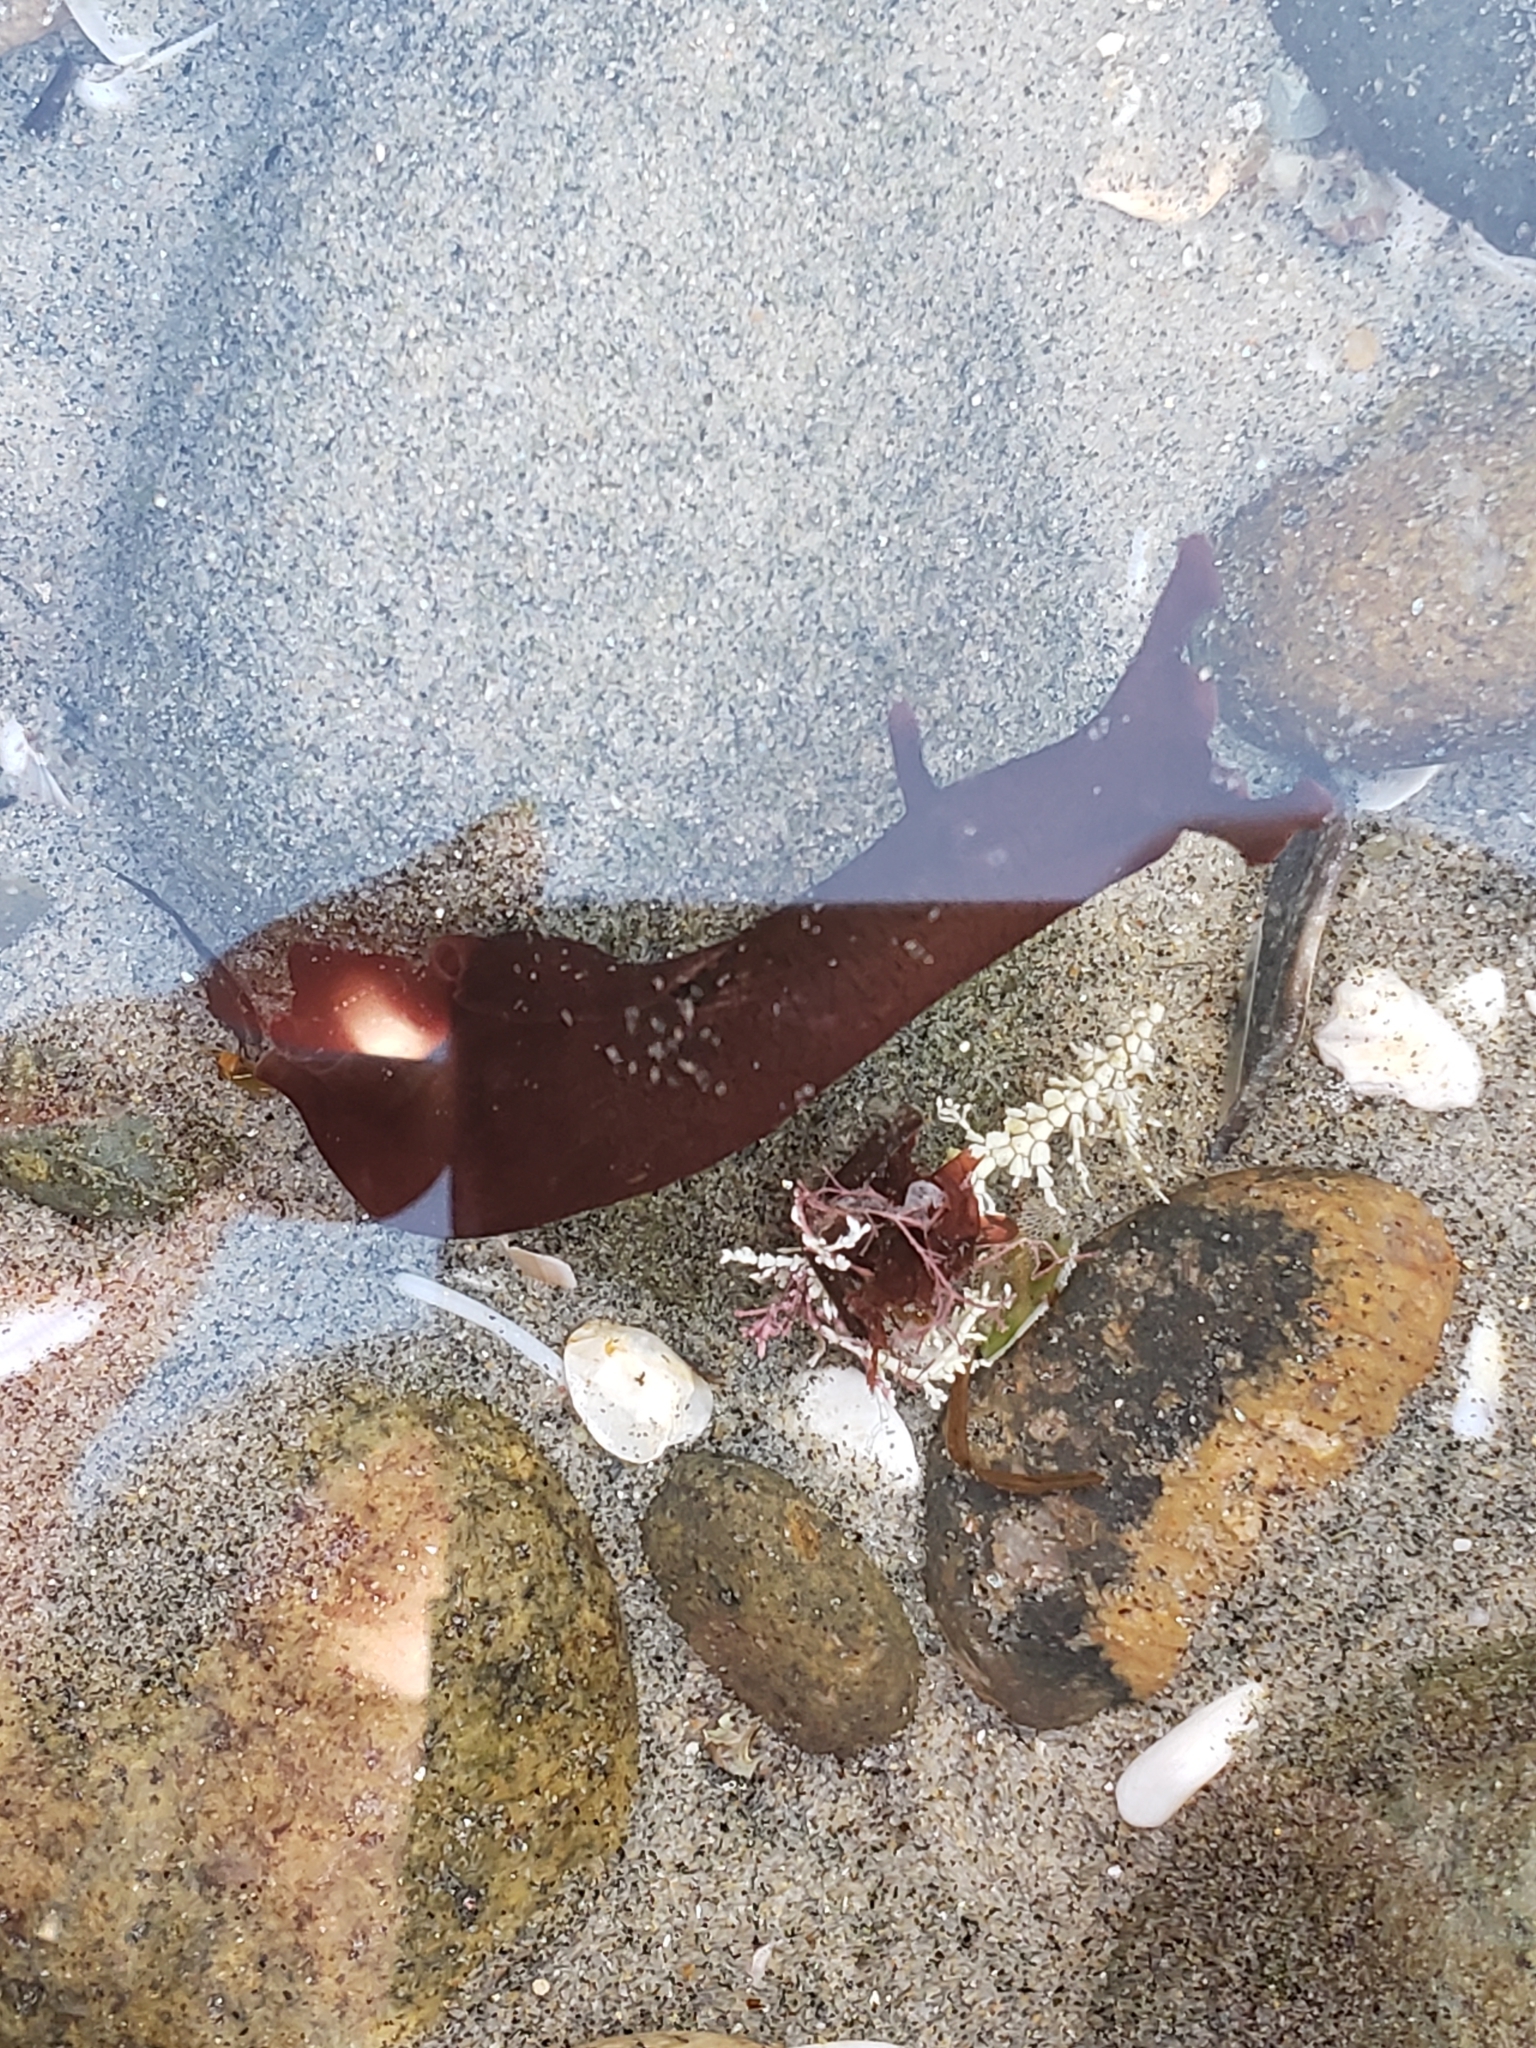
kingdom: Animalia
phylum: Mollusca
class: Gastropoda
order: Aplysiida
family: Aplysiidae
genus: Aplysia
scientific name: Aplysia californica
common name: California seahare
